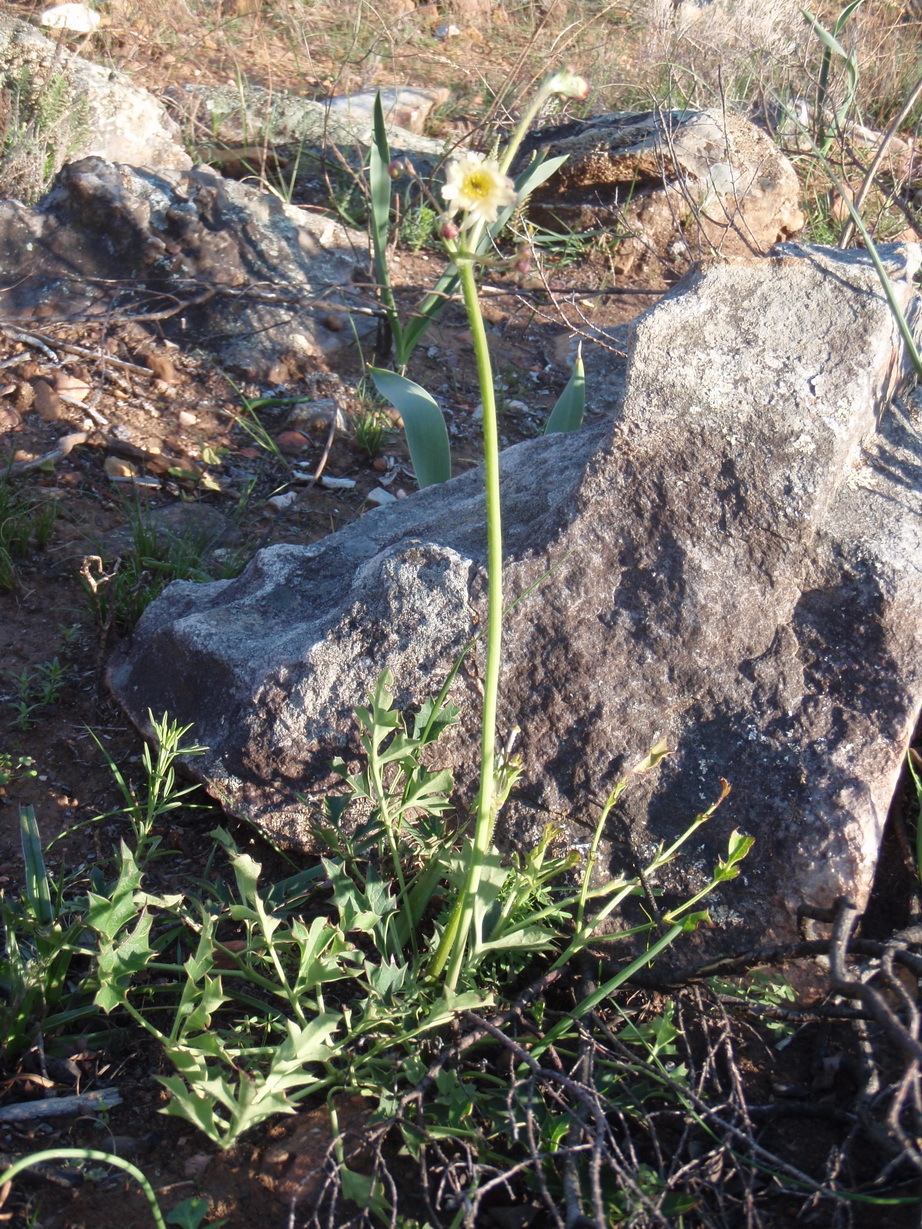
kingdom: Plantae
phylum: Tracheophyta
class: Magnoliopsida
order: Ranunculales
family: Ranunculaceae
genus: Knowltonia
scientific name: Knowltonia filia
